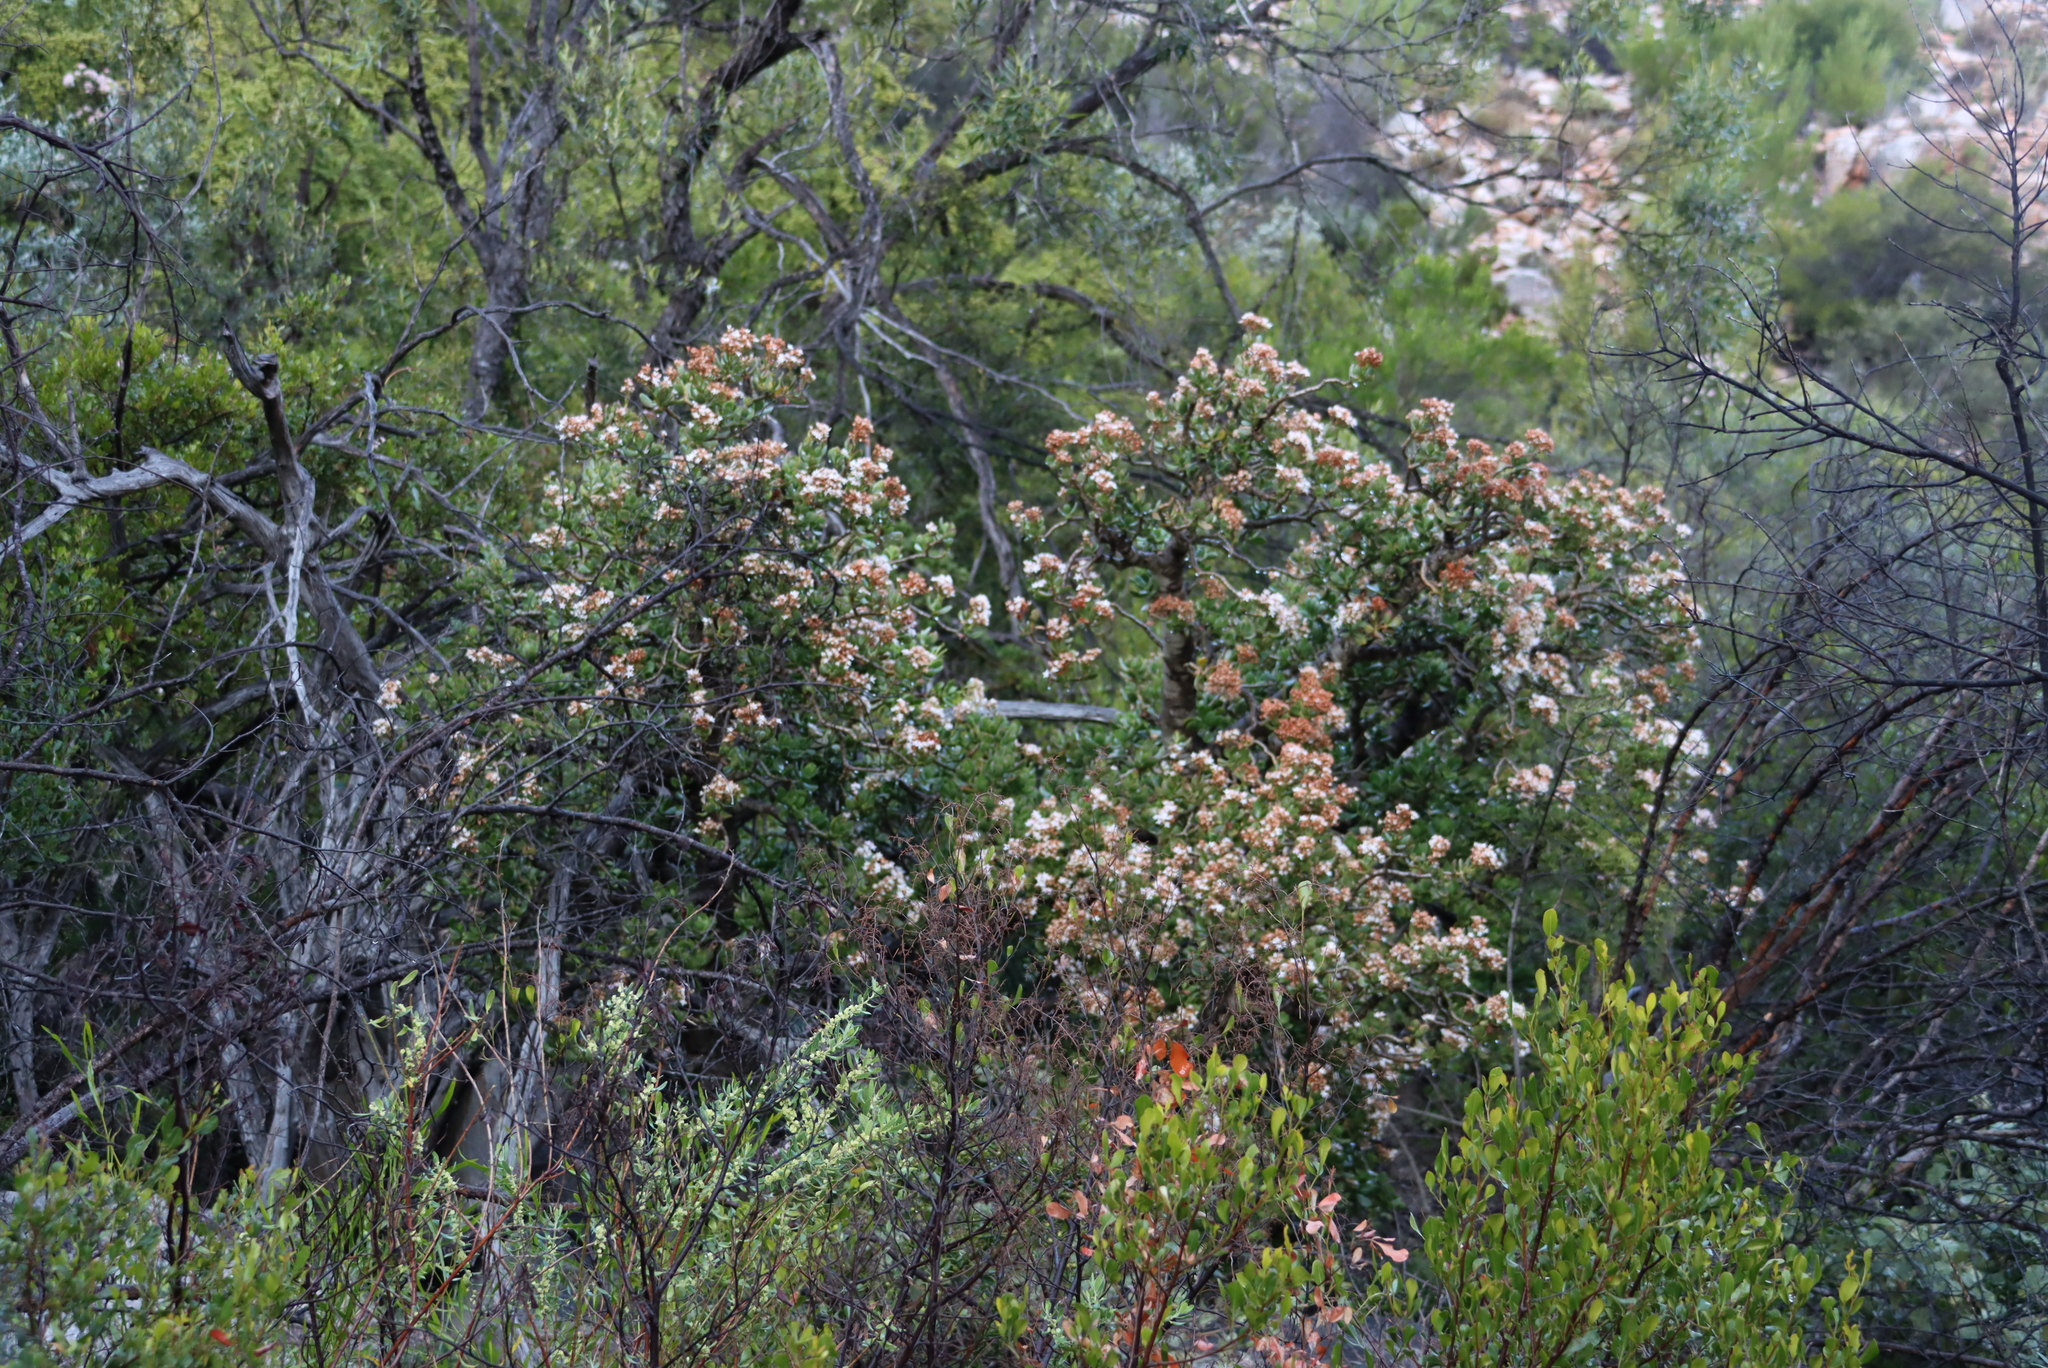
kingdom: Plantae
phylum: Tracheophyta
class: Magnoliopsida
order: Saxifragales
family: Crassulaceae
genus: Crassula
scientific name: Crassula ovata
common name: Jade plant
